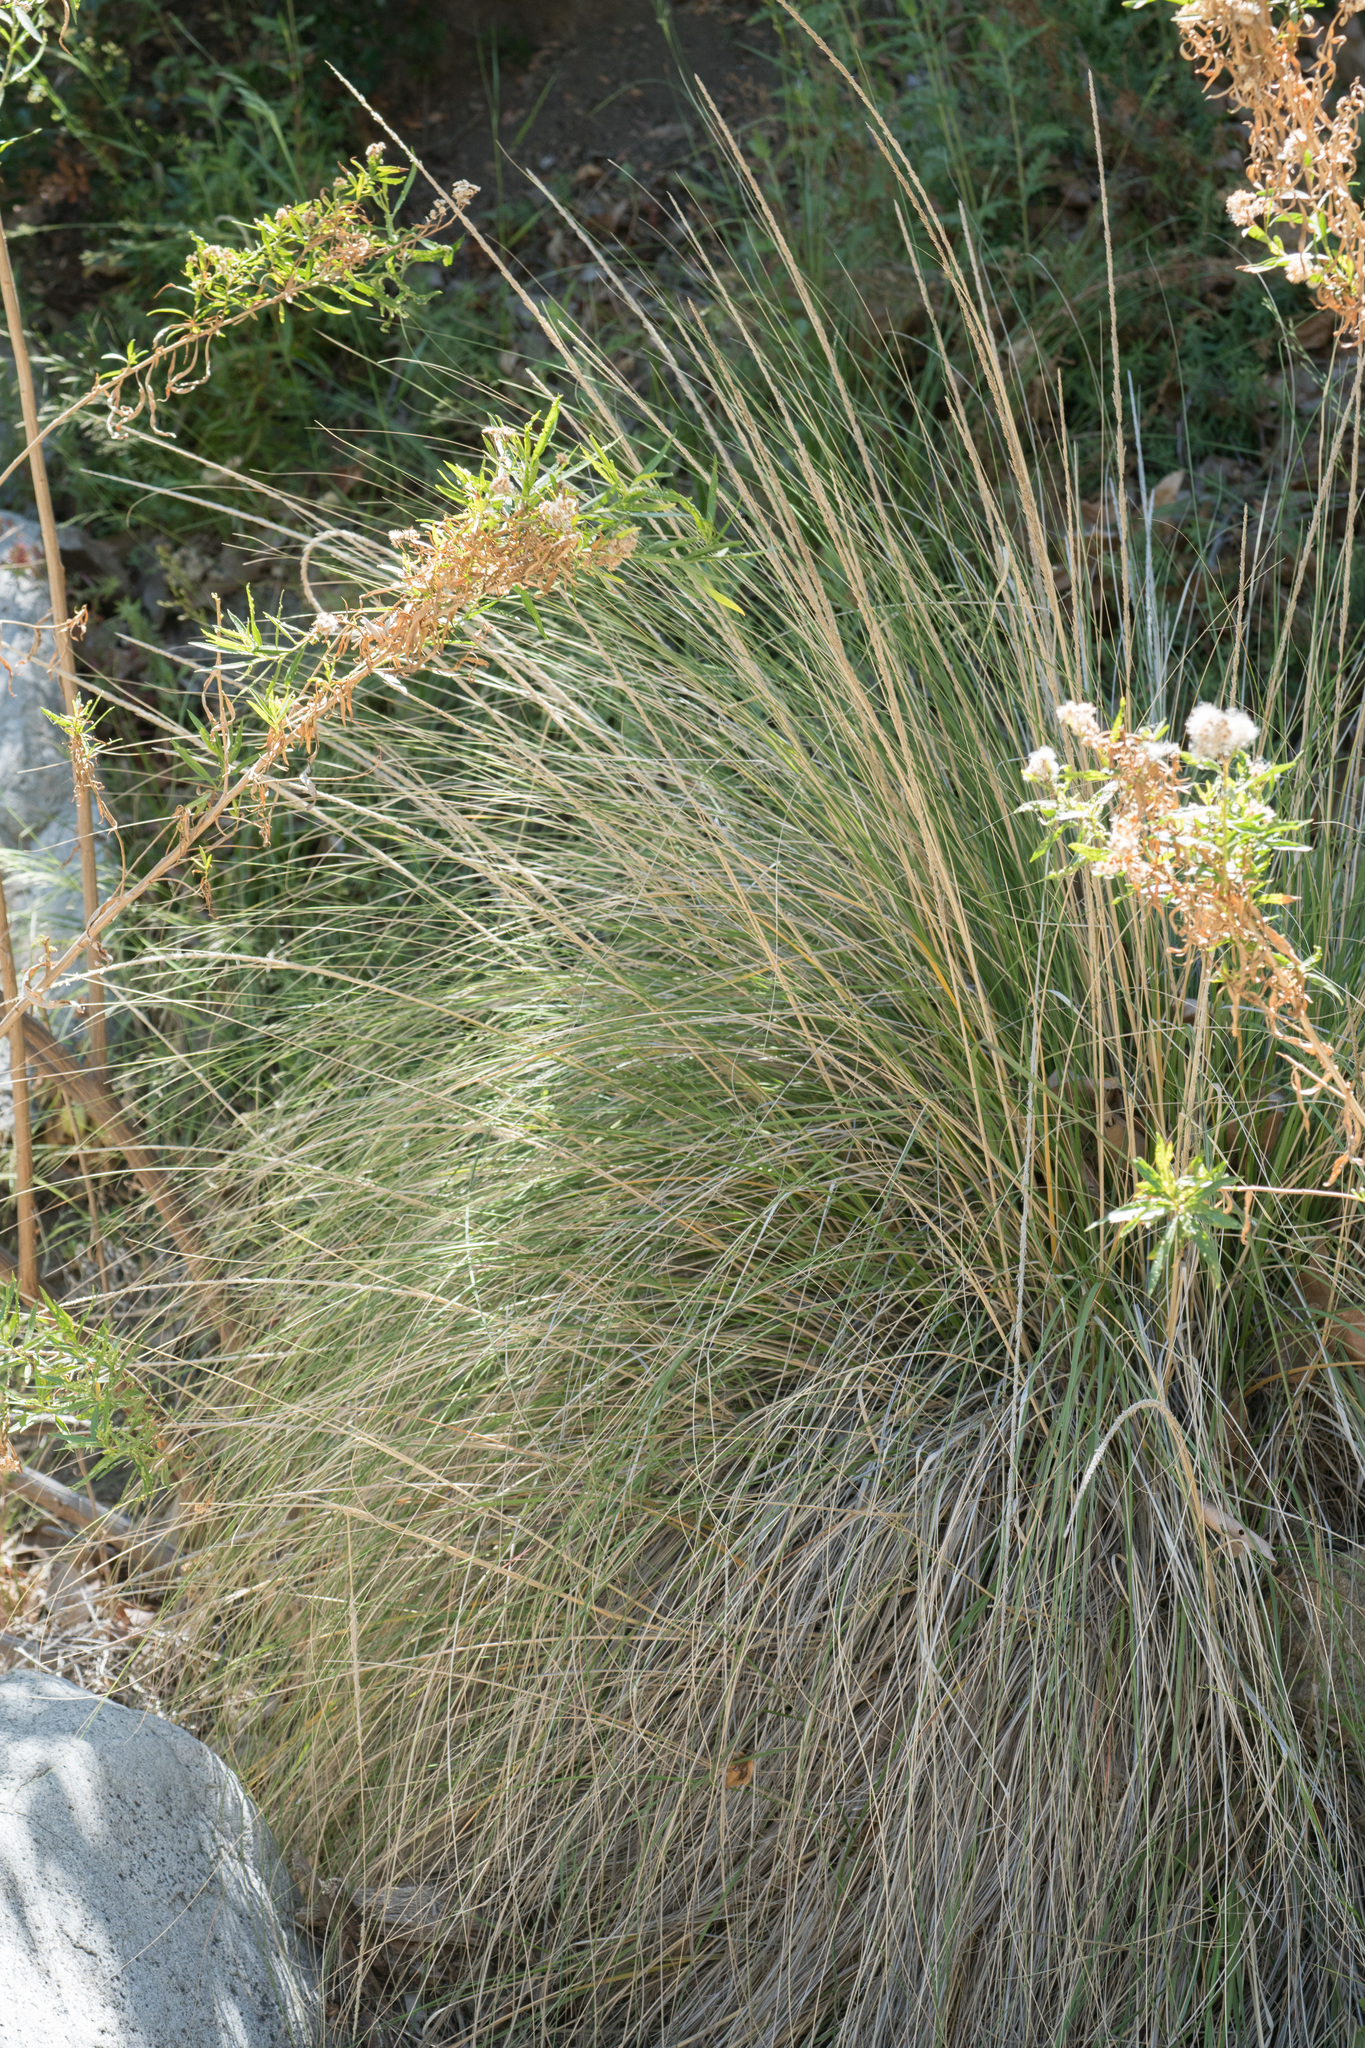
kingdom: Plantae
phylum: Tracheophyta
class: Liliopsida
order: Poales
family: Poaceae
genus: Muhlenbergia
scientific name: Muhlenbergia rigens
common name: Deer grass
